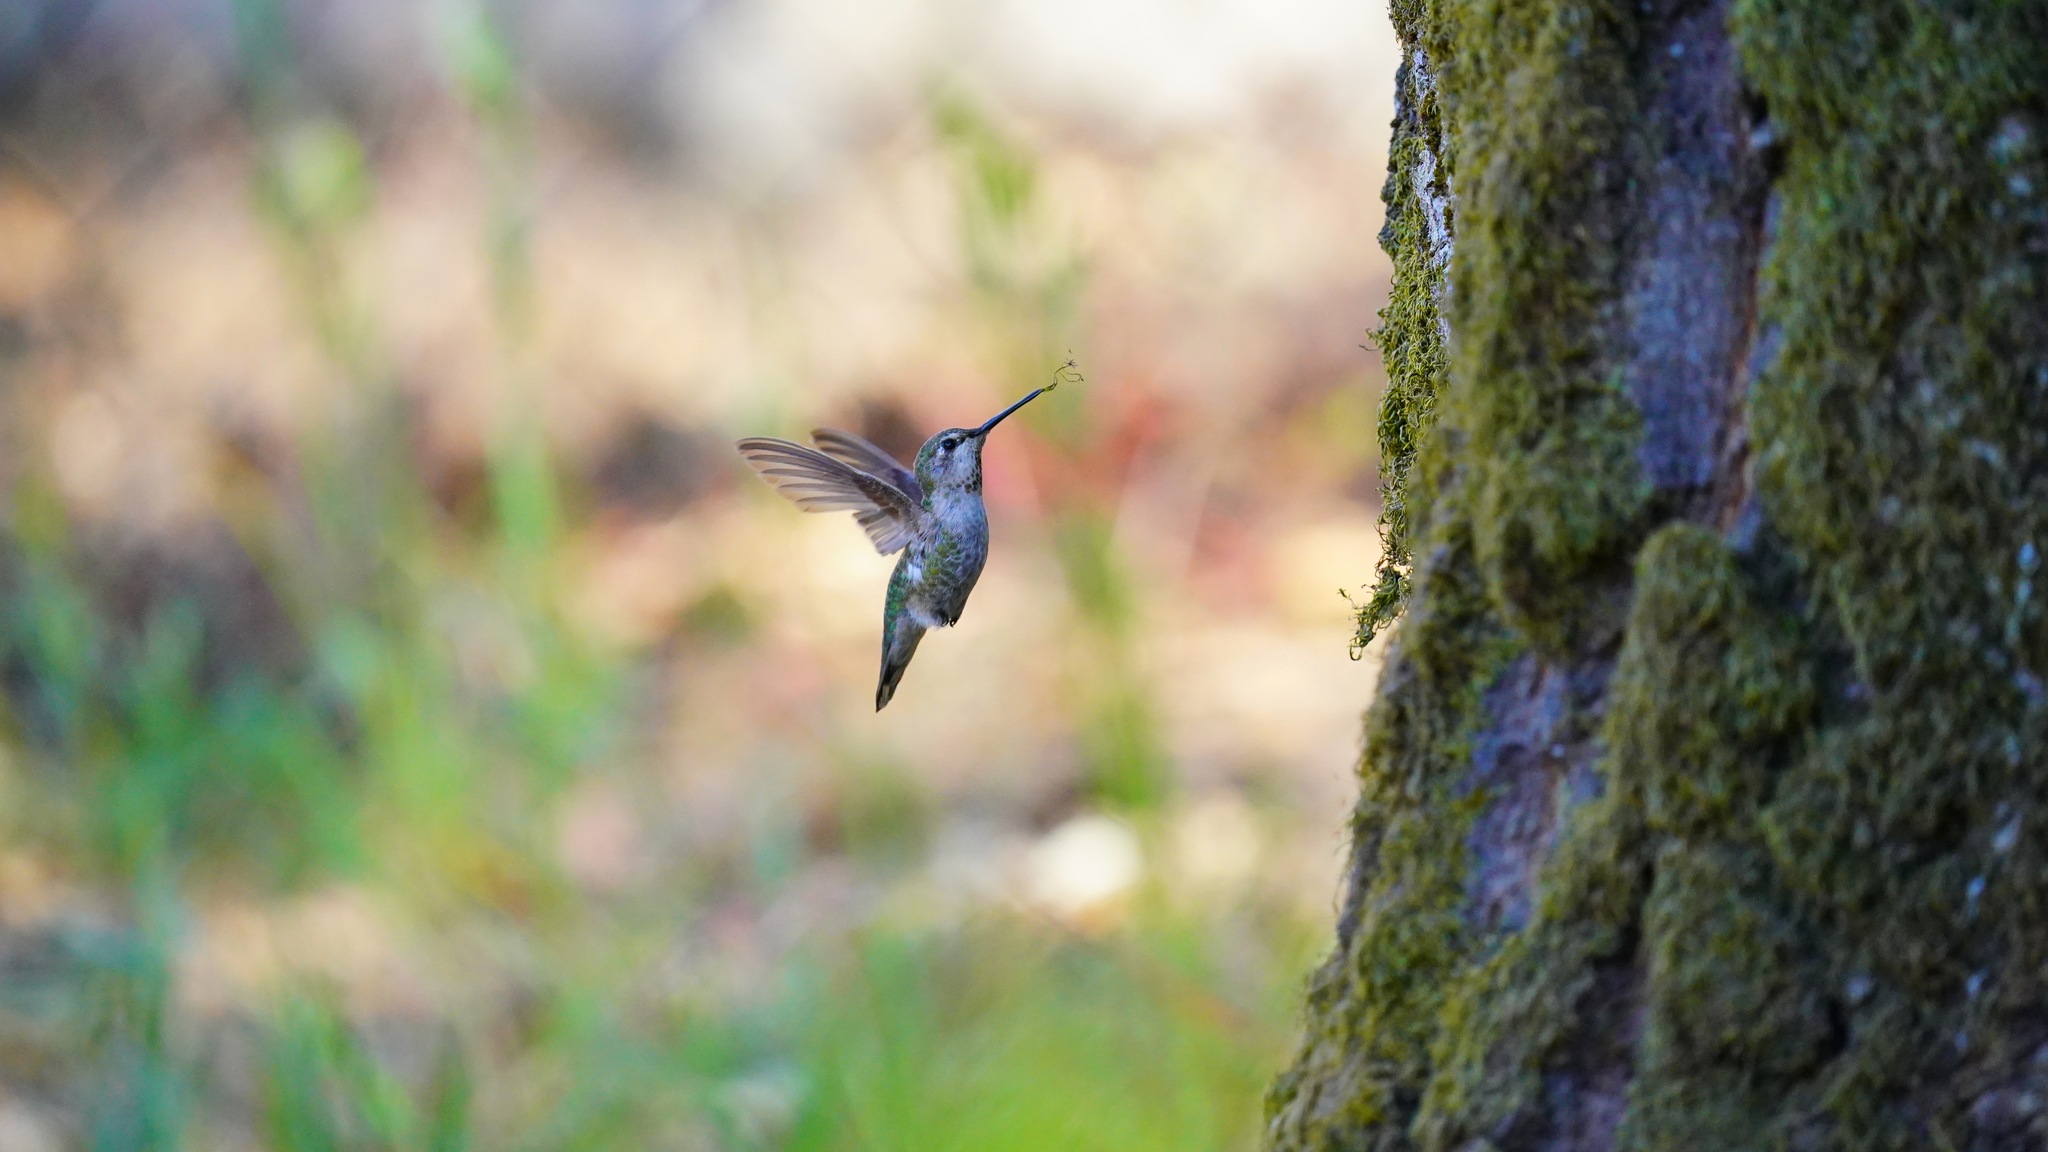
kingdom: Animalia
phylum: Chordata
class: Aves
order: Apodiformes
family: Trochilidae
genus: Calypte
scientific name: Calypte anna
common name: Anna's hummingbird
